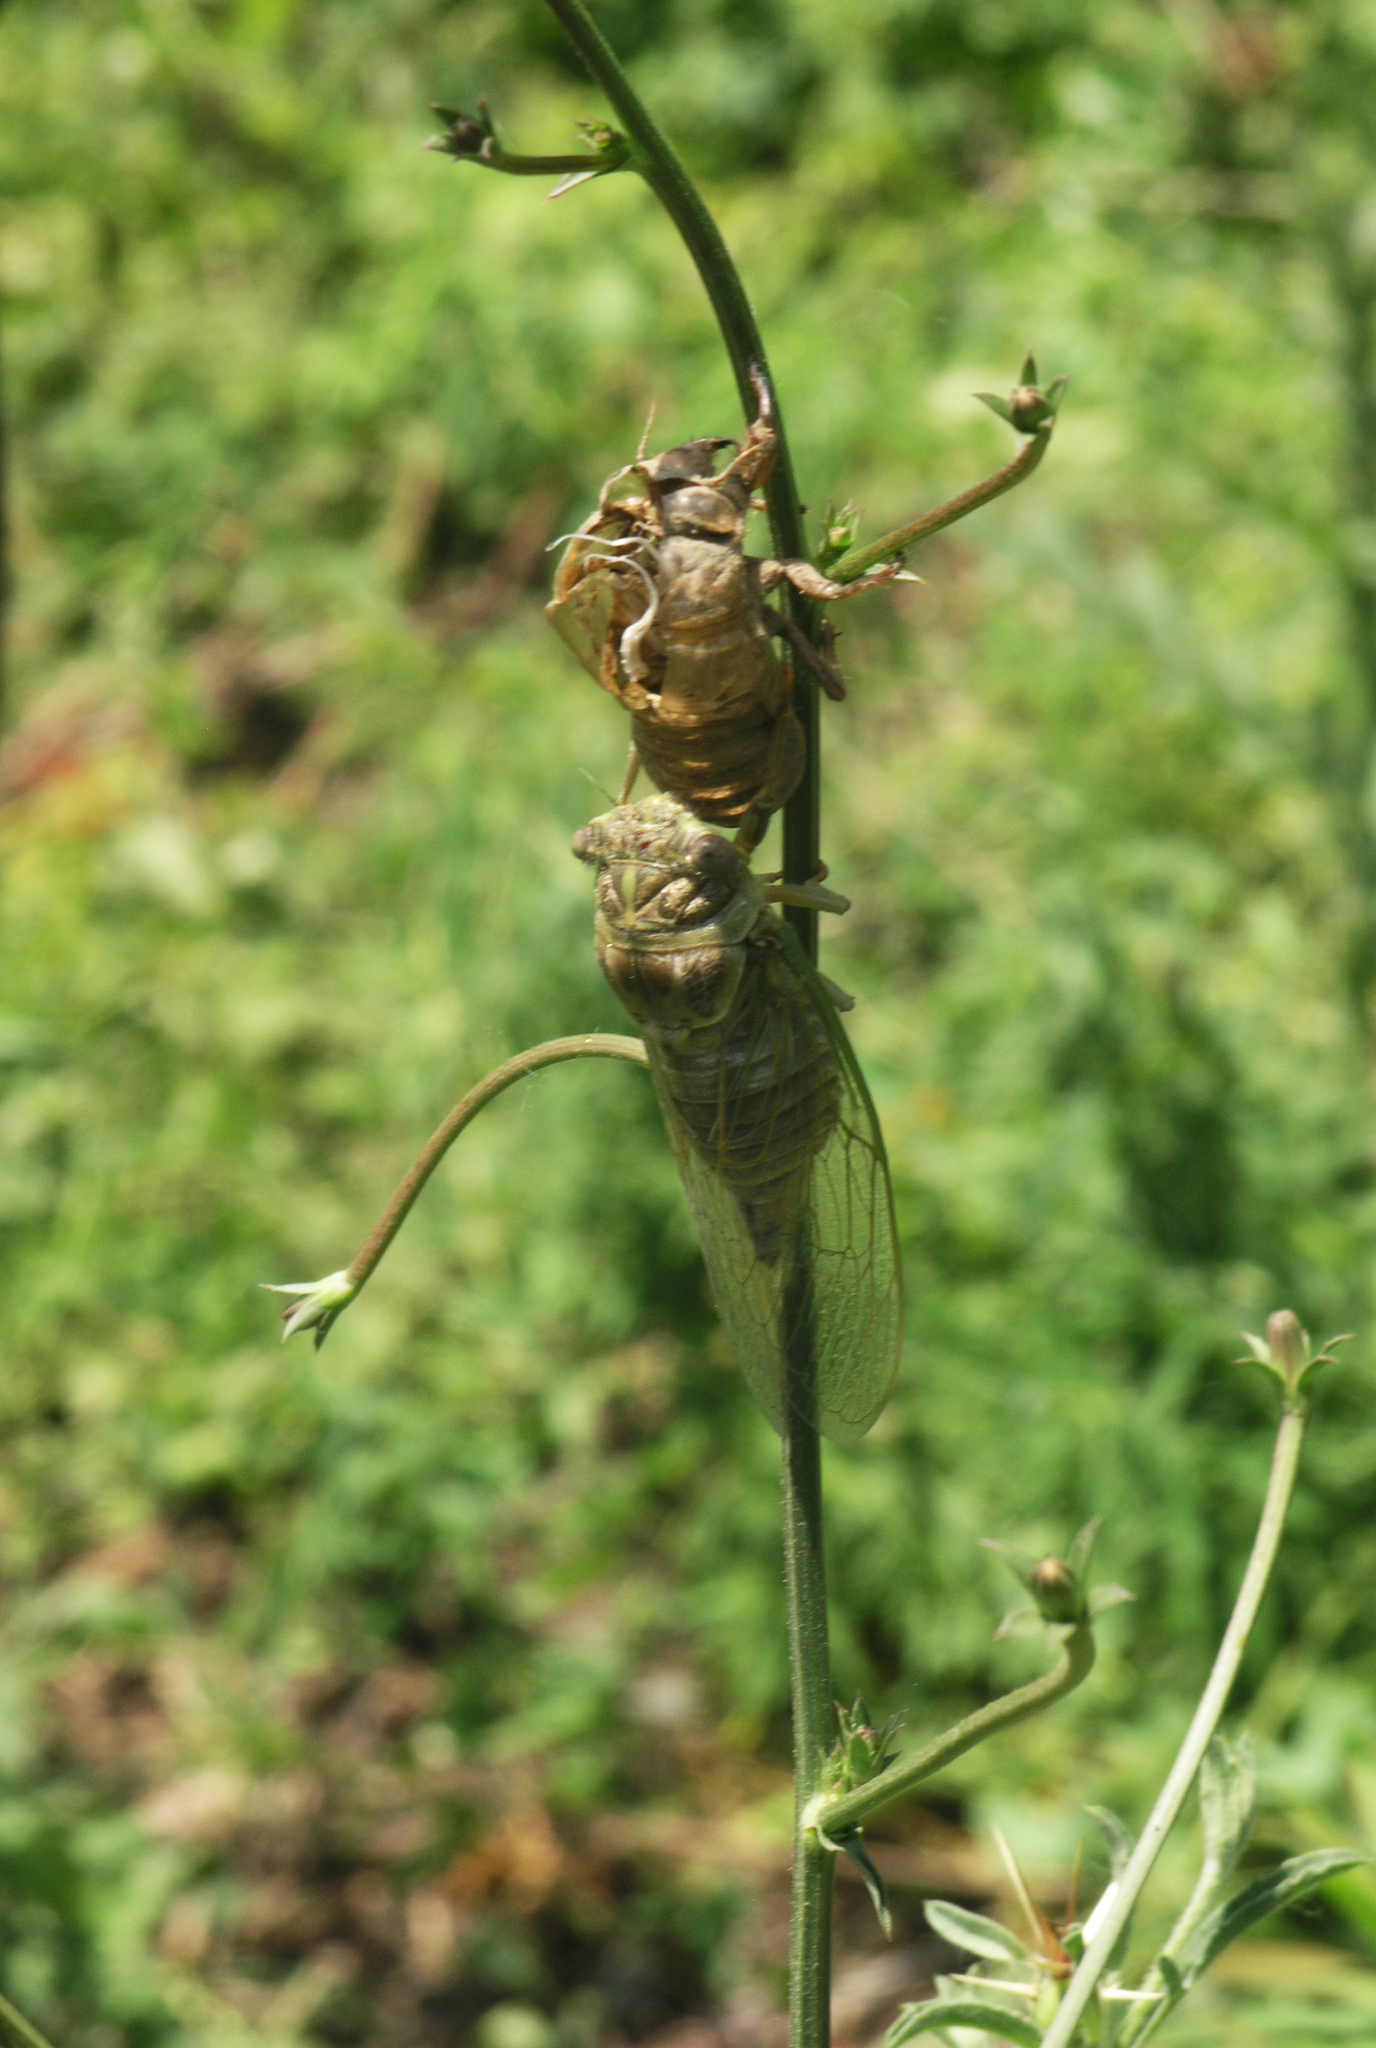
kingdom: Animalia
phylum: Arthropoda
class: Insecta
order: Hemiptera
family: Cicadidae
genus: Lyristes
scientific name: Lyristes plebejus
